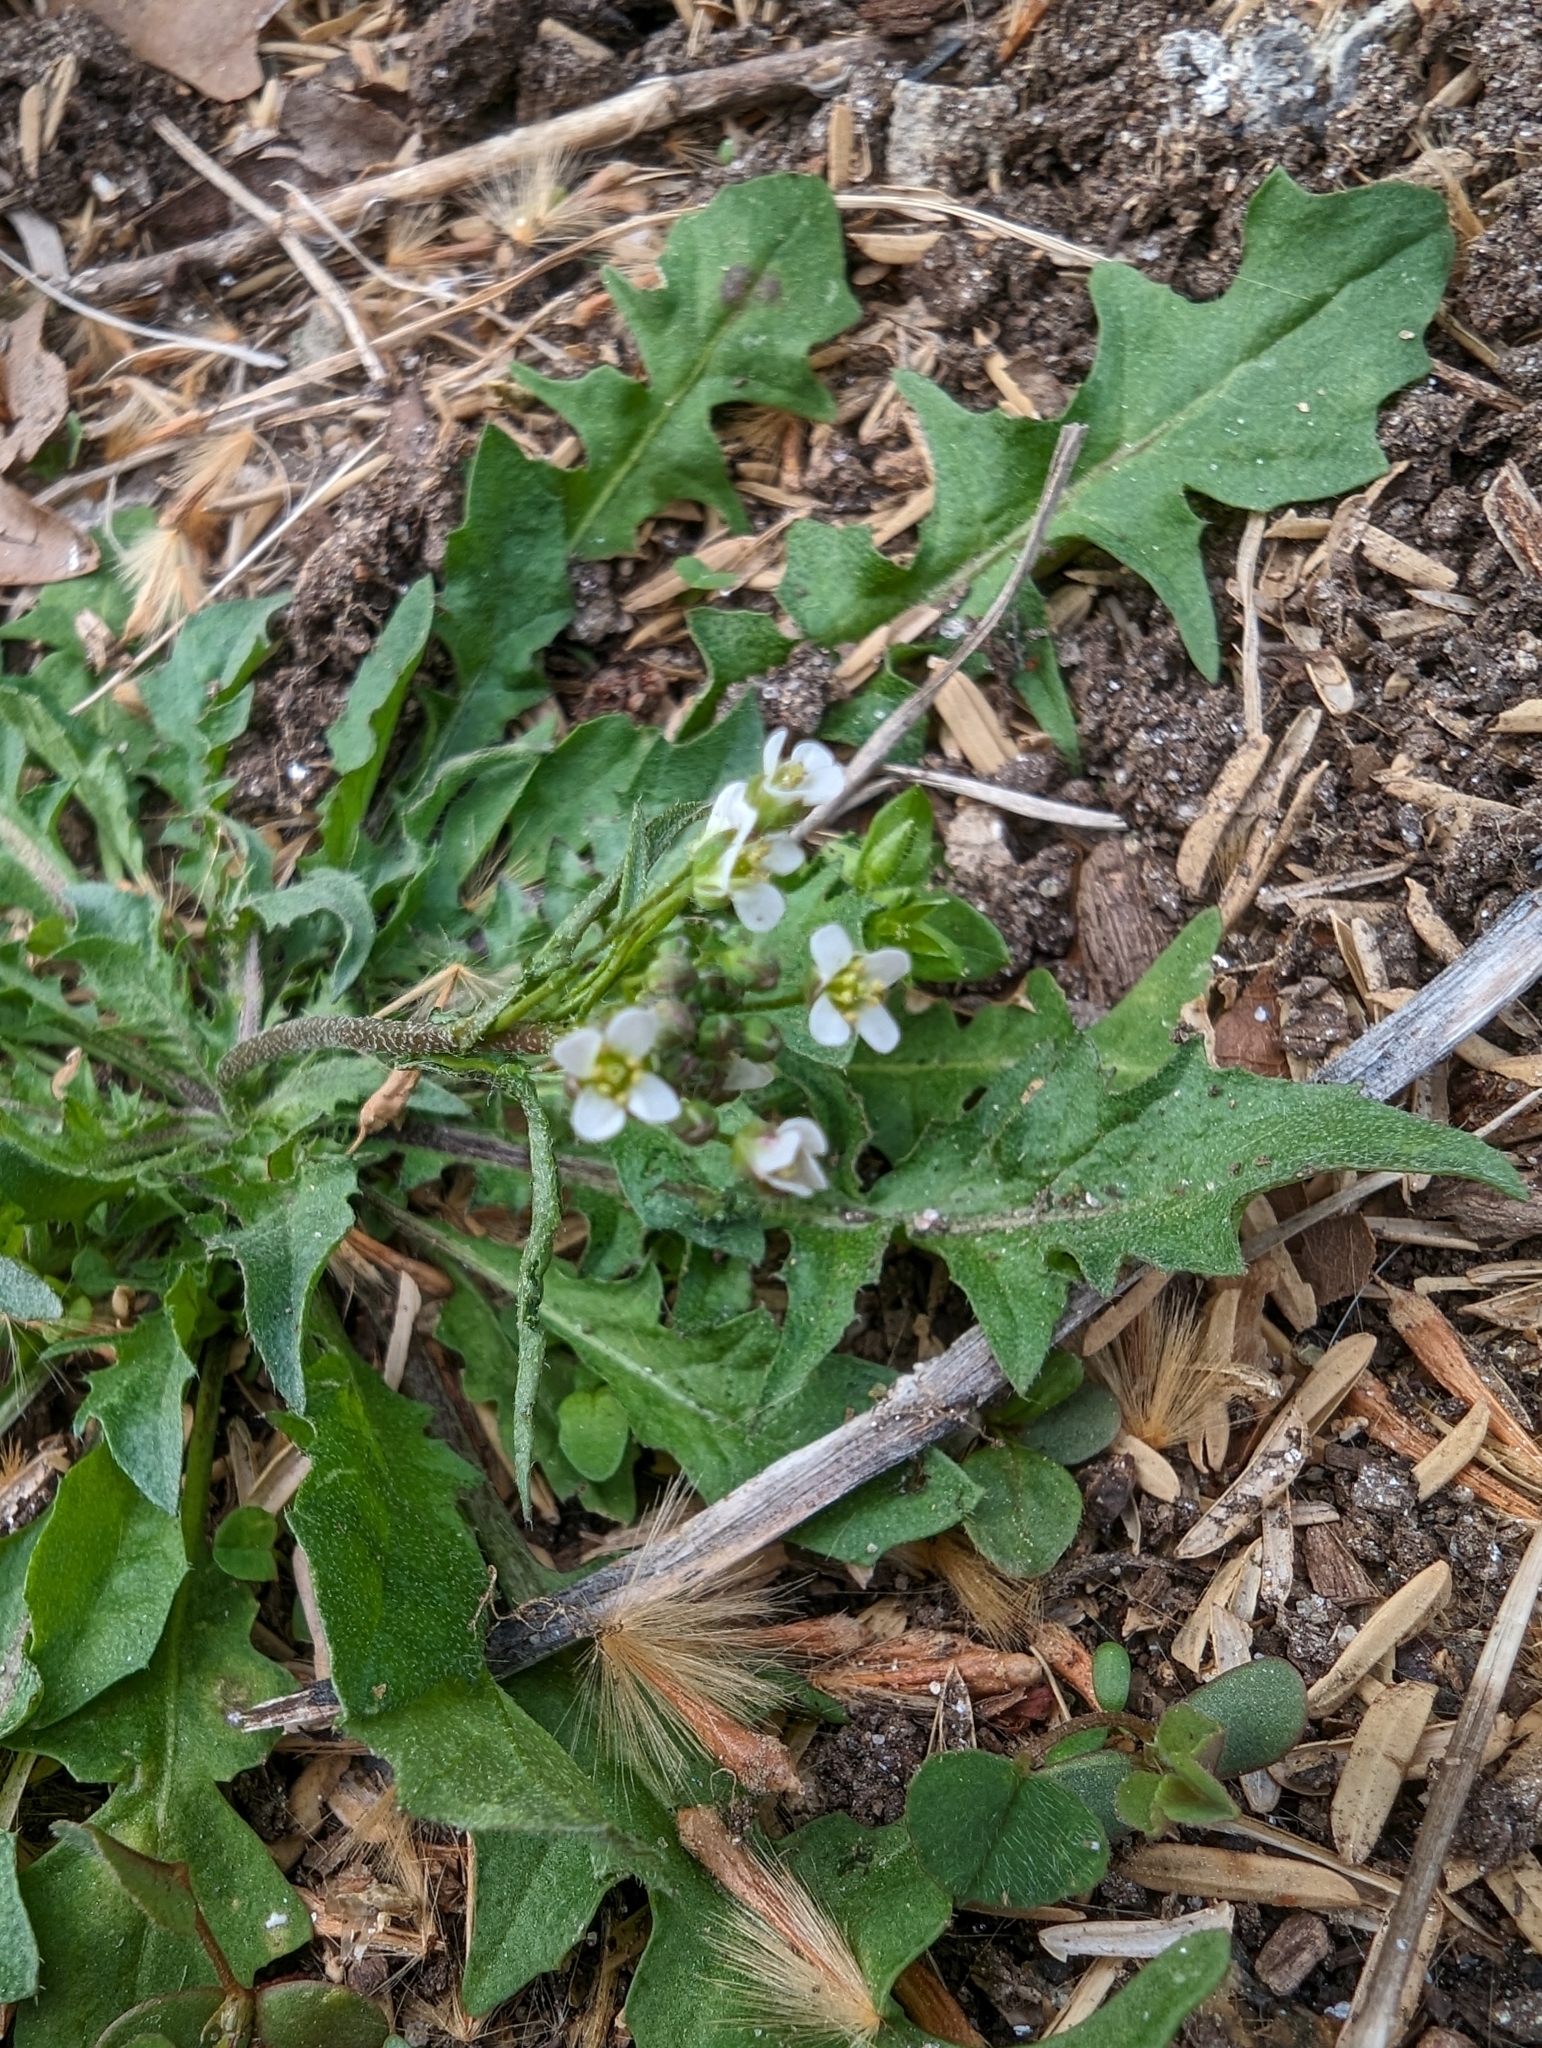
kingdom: Plantae
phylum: Tracheophyta
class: Magnoliopsida
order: Brassicales
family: Brassicaceae
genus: Capsella
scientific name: Capsella bursa-pastoris
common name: Shepherd's purse
